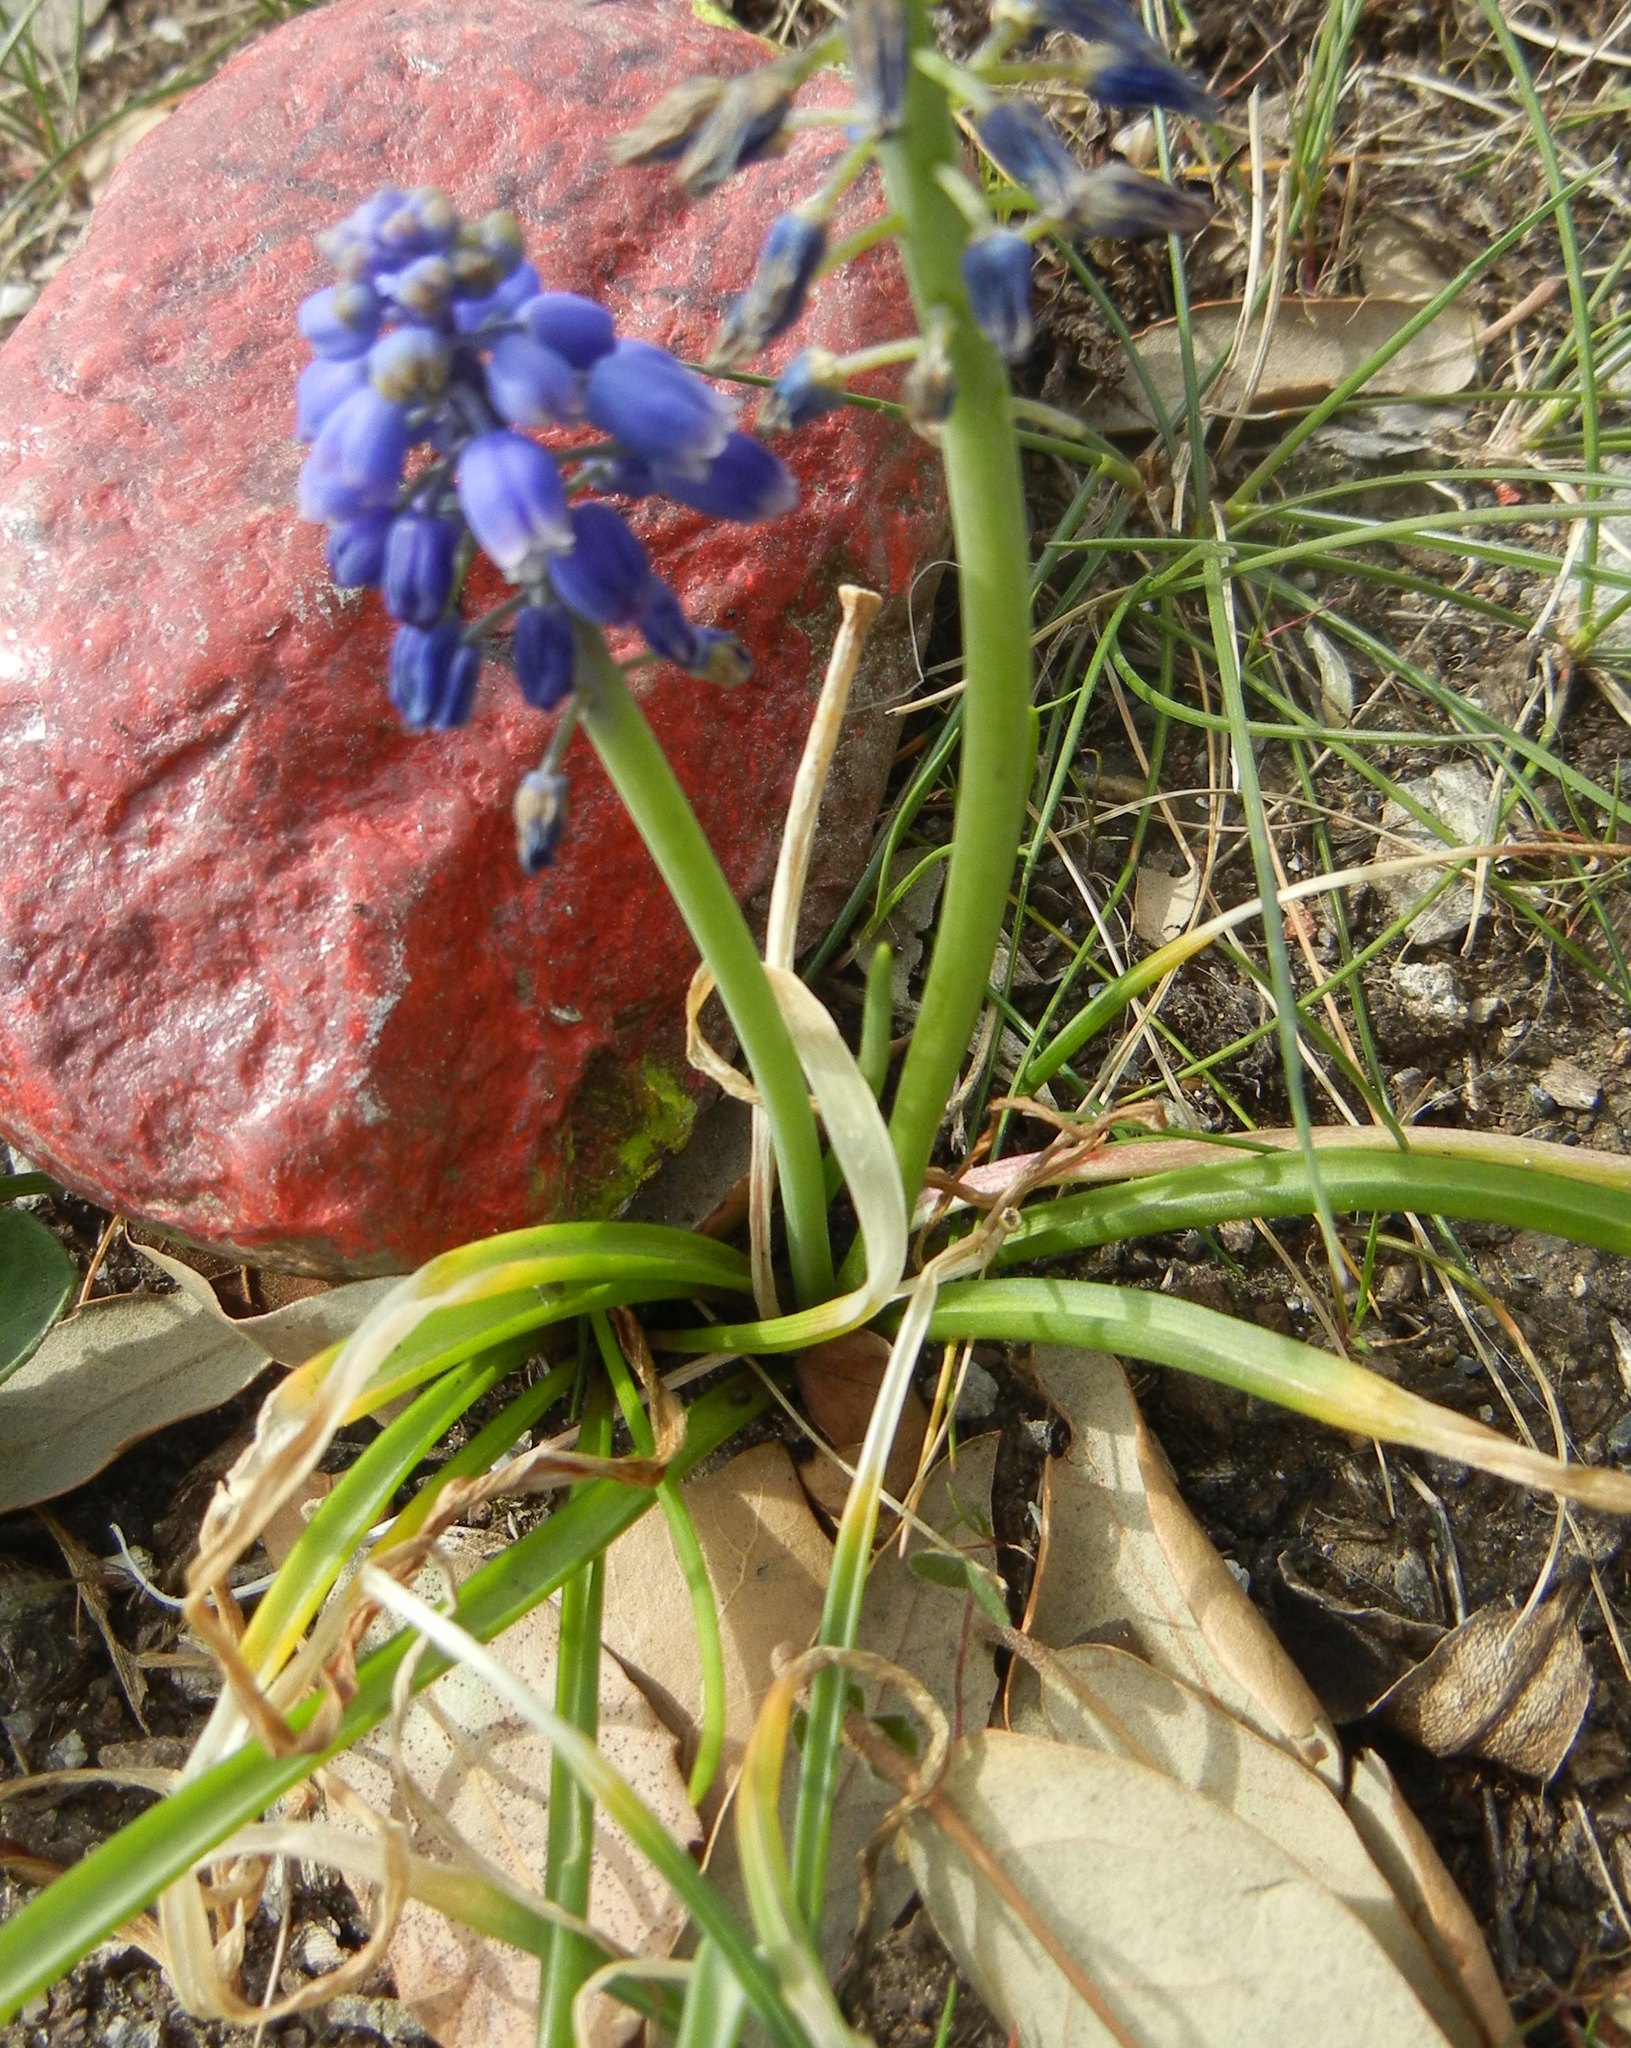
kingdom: Plantae
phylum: Tracheophyta
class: Liliopsida
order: Asparagales
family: Asparagaceae
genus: Muscari
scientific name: Muscari armeniacum
